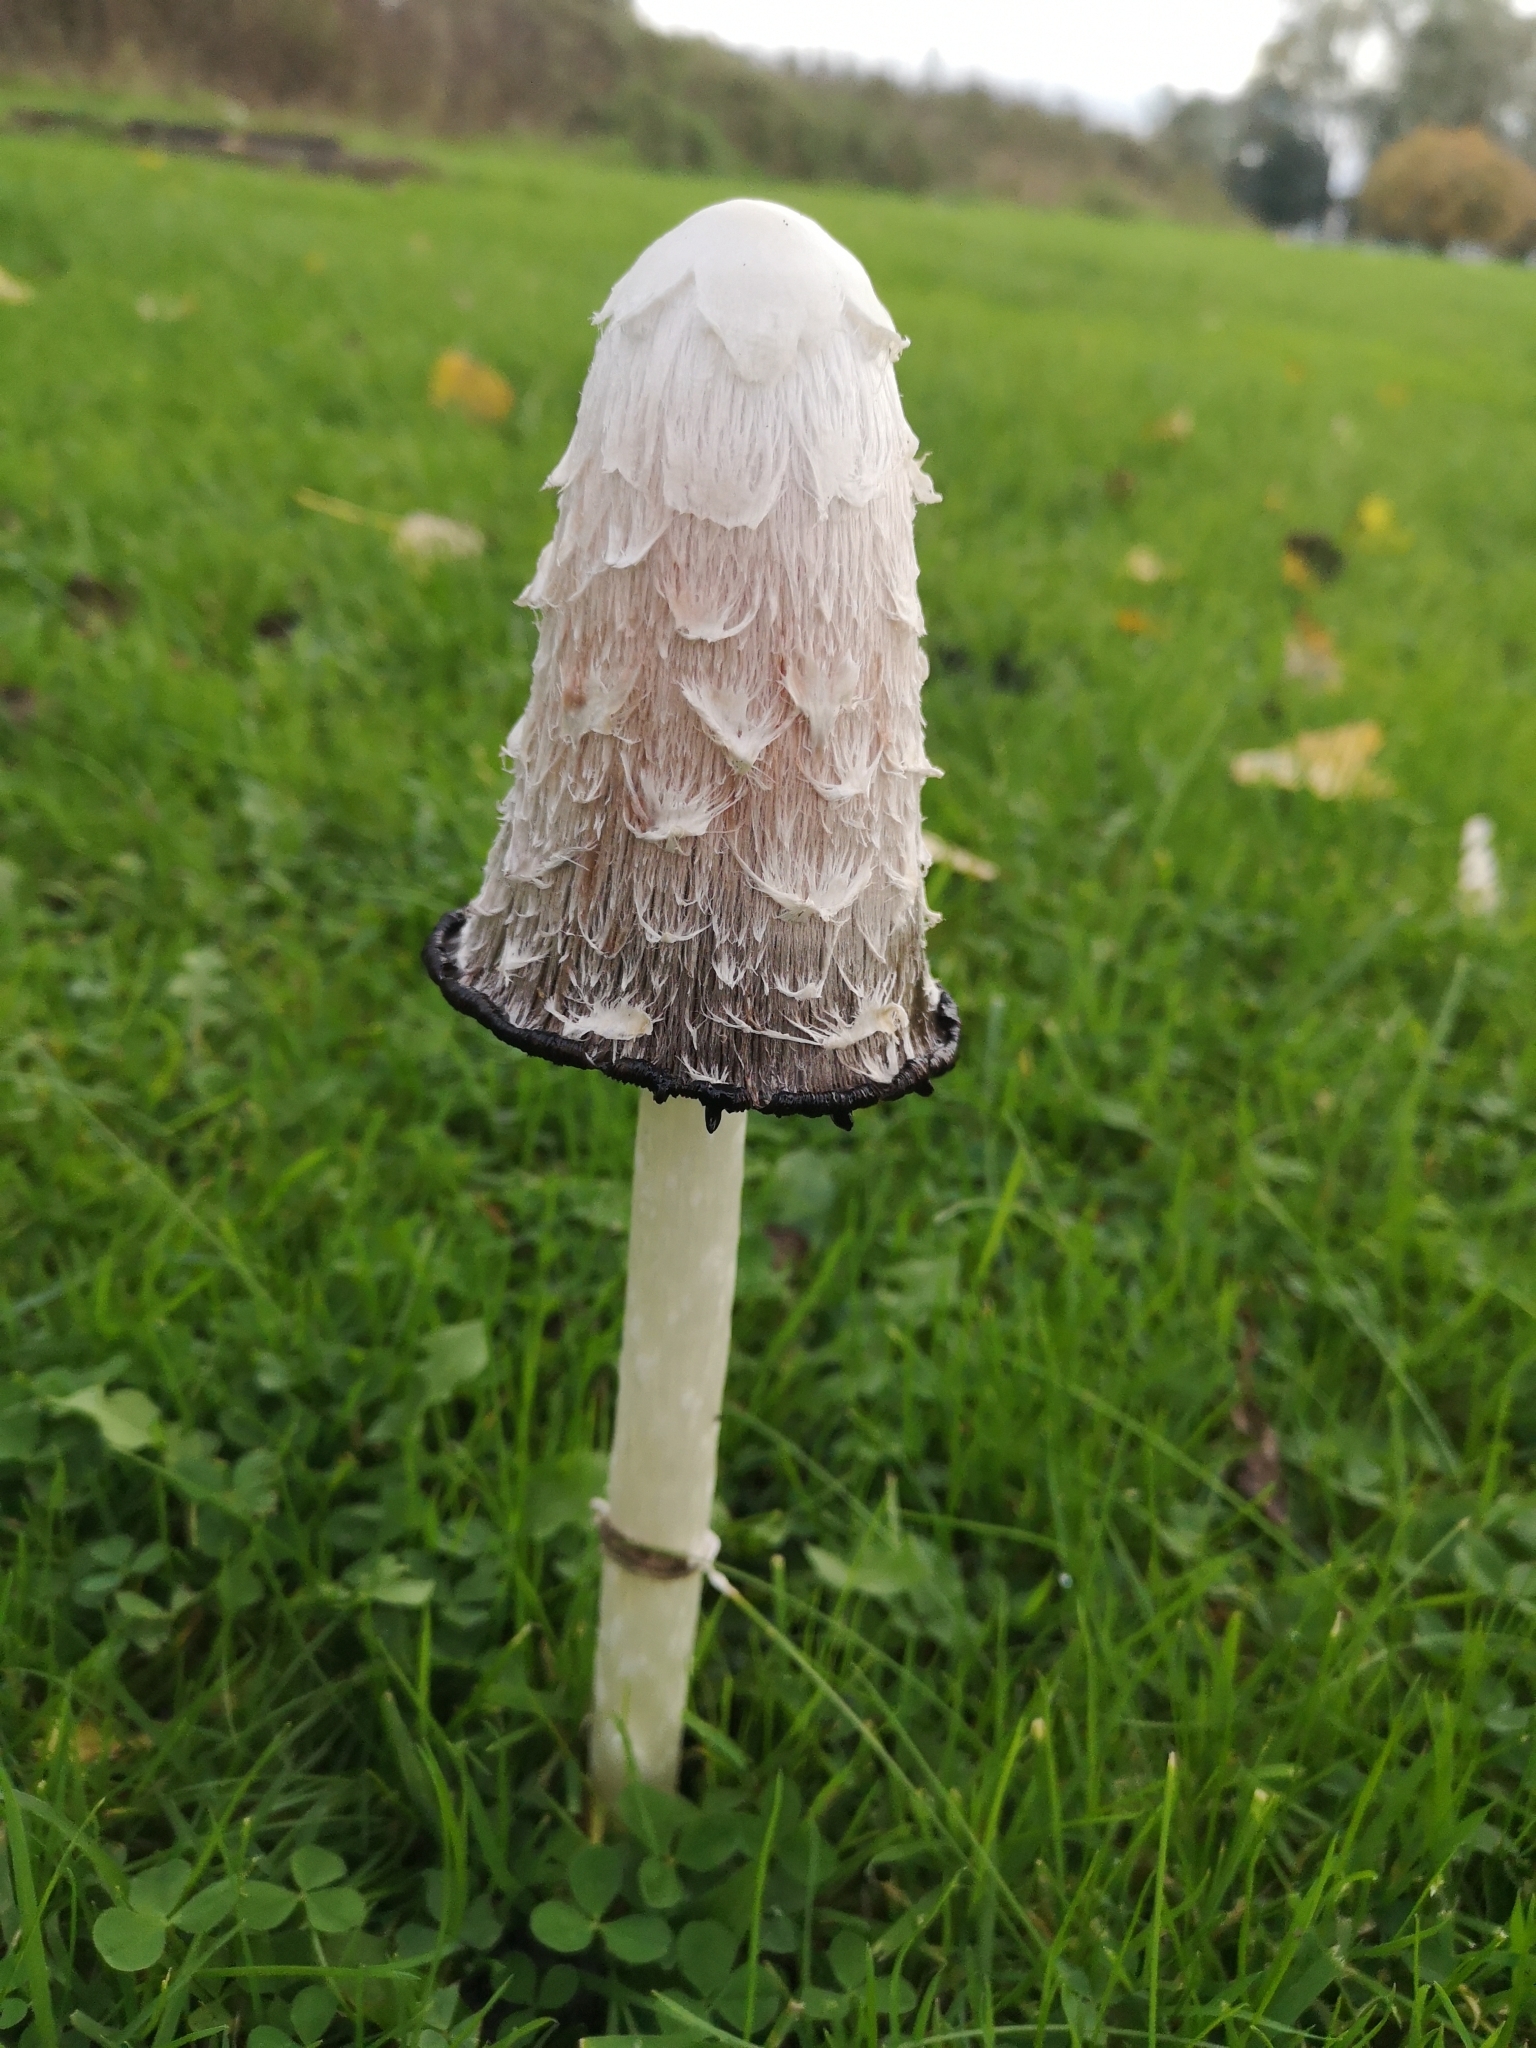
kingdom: Fungi
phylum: Basidiomycota
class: Agaricomycetes
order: Agaricales
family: Agaricaceae
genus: Coprinus
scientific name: Coprinus comatus
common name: Lawyer's wig
